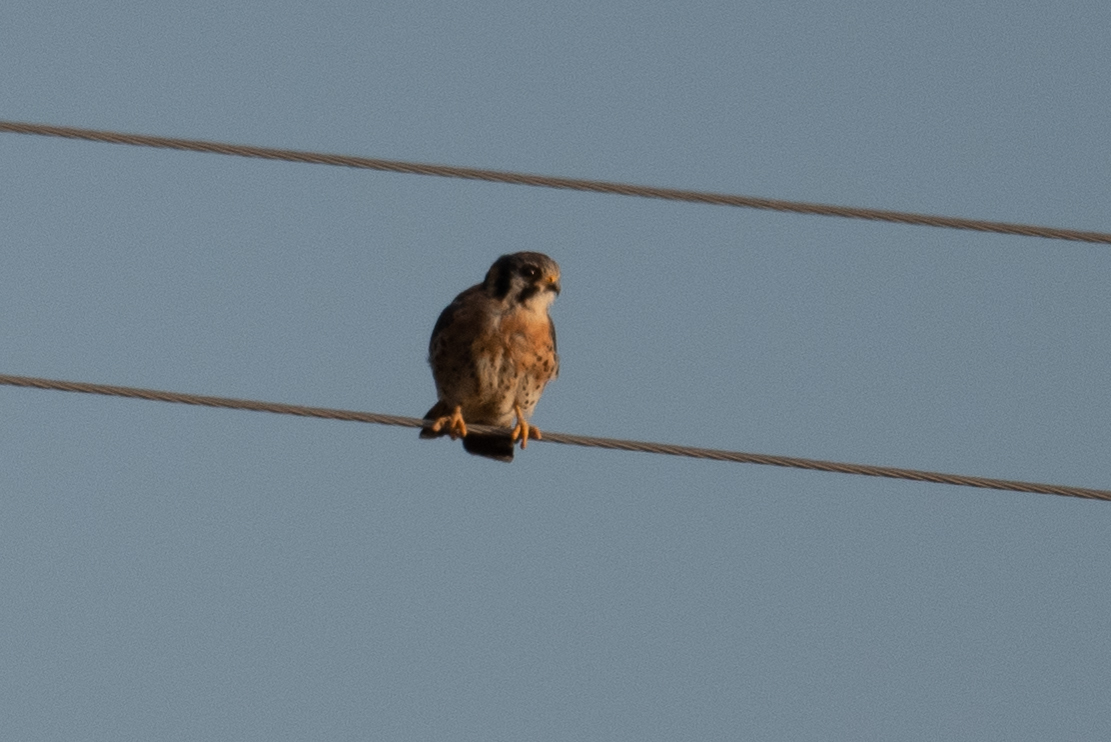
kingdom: Animalia
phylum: Chordata
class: Aves
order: Falconiformes
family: Falconidae
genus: Falco
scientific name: Falco sparverius
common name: American kestrel
